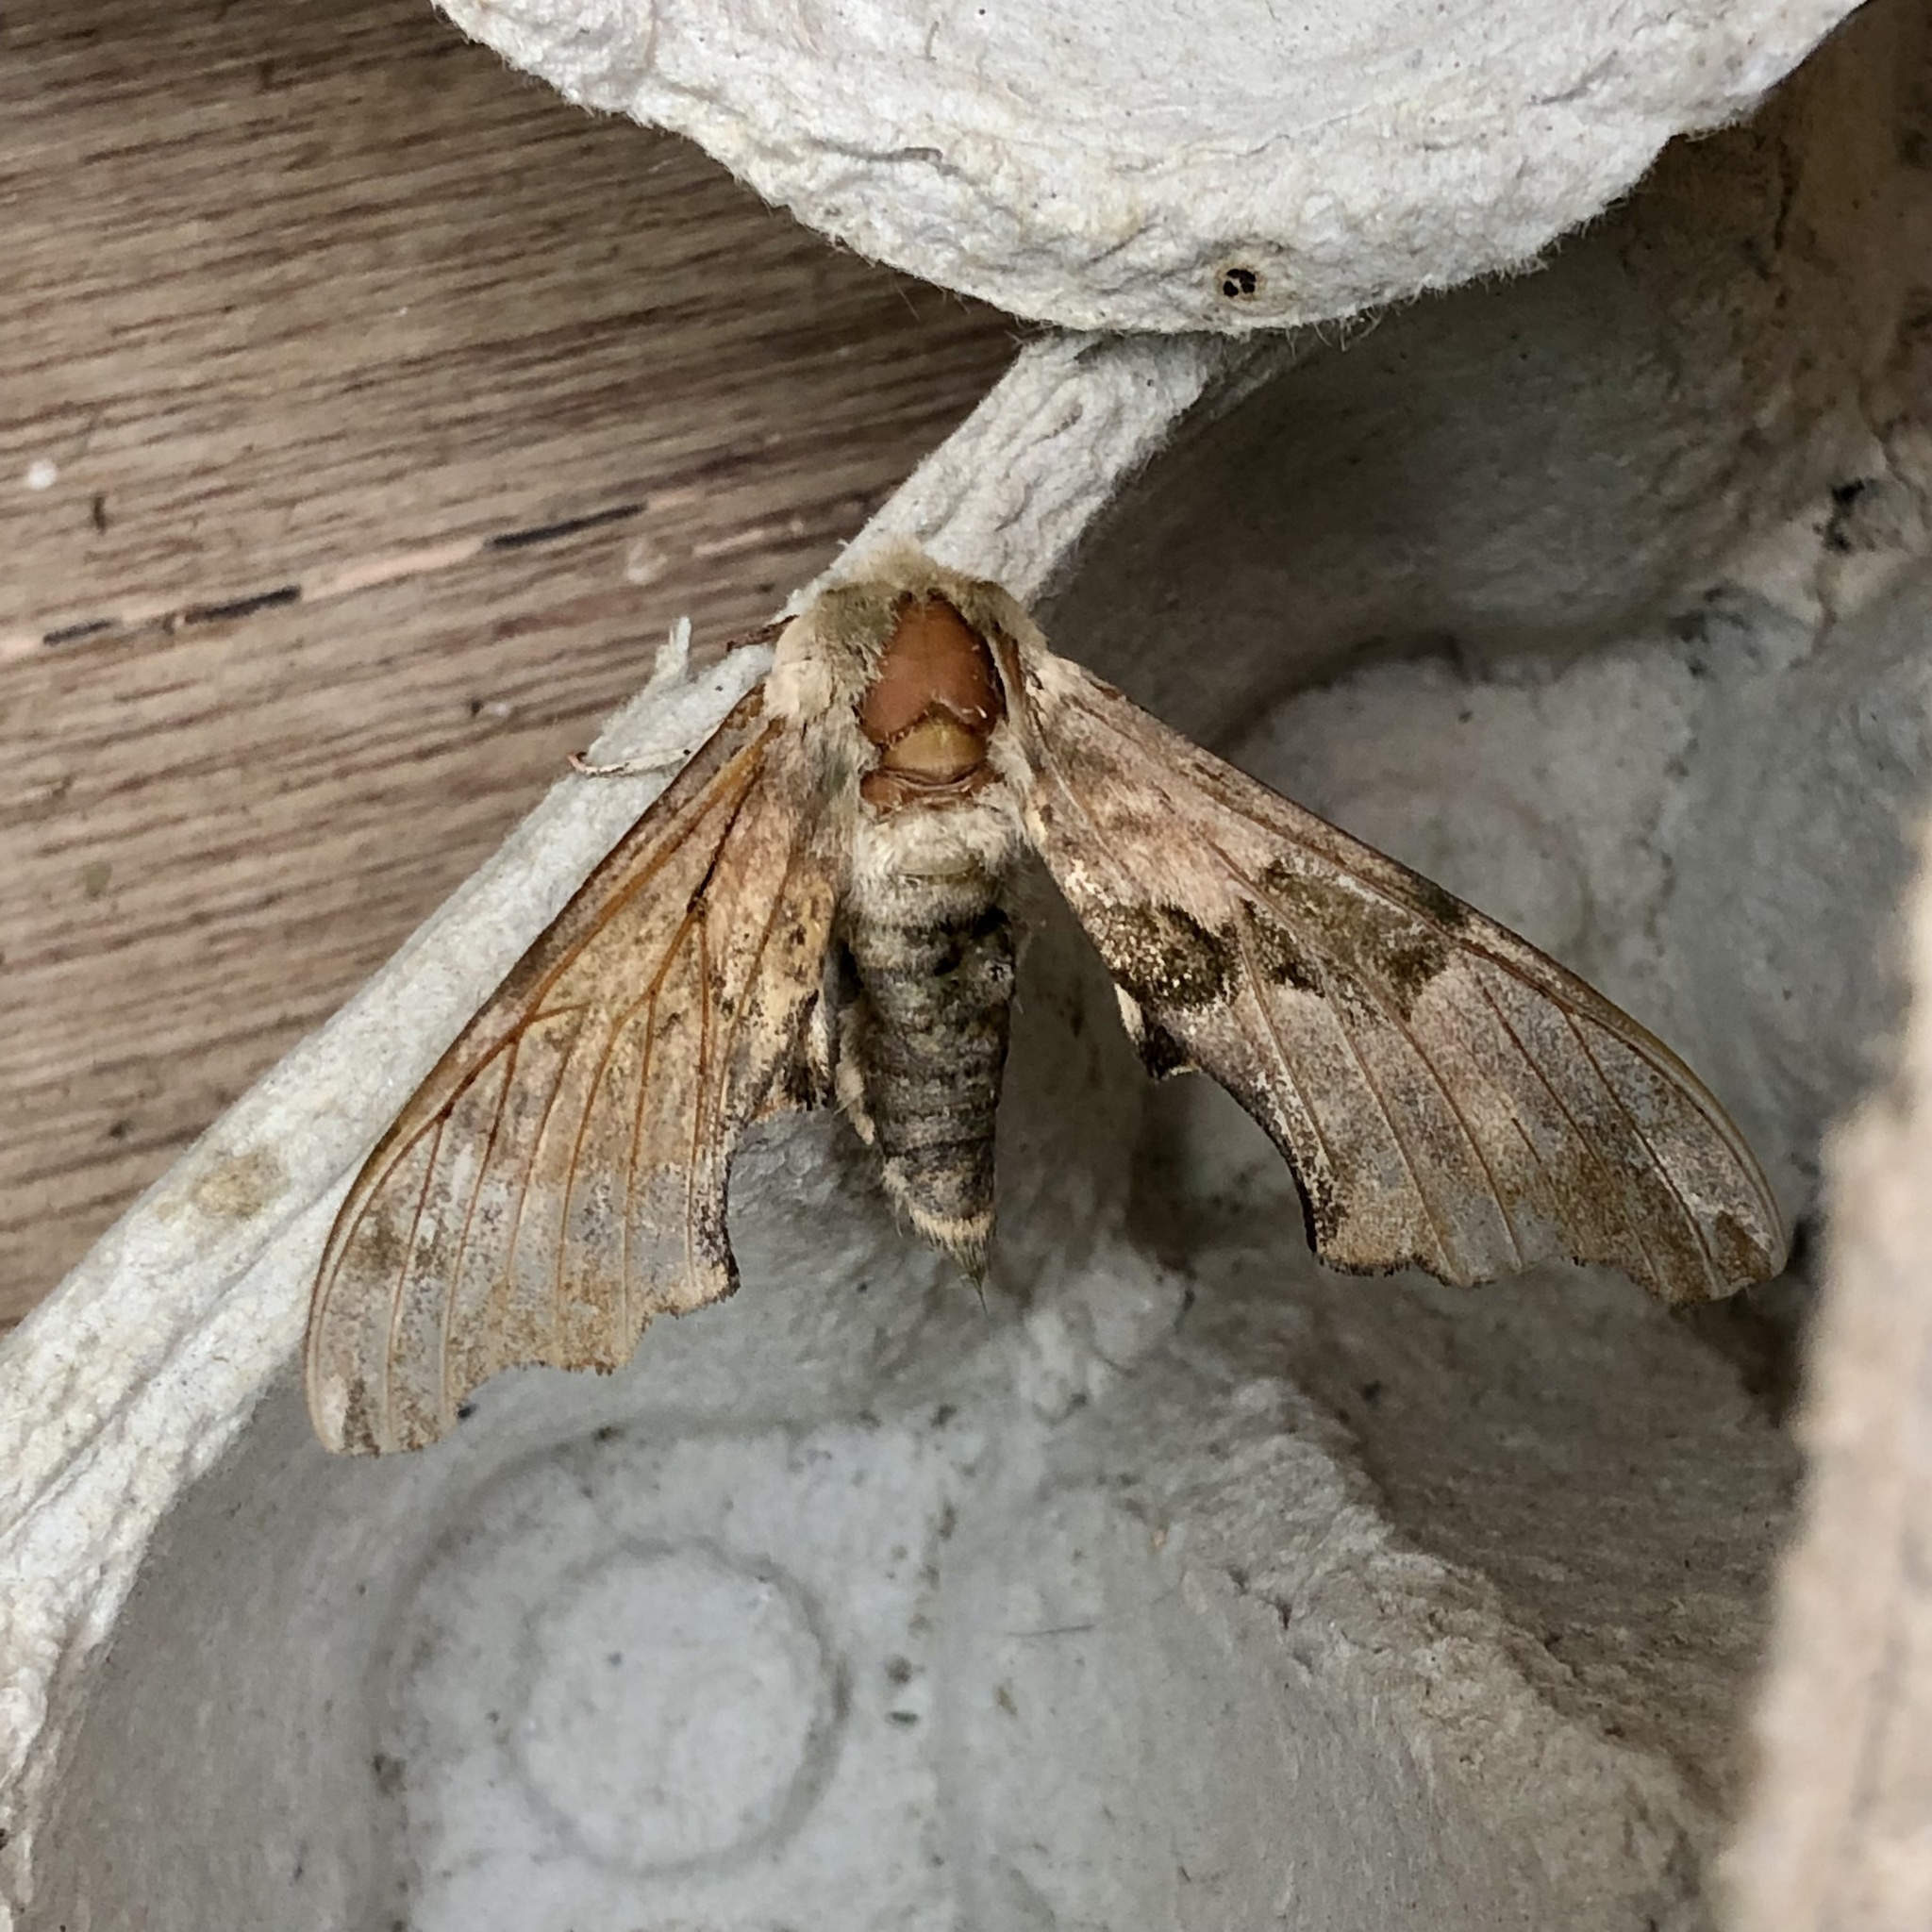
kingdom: Animalia
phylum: Arthropoda
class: Insecta
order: Lepidoptera
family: Sphingidae
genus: Mimas
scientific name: Mimas tiliae
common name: Lime hawk-moth
